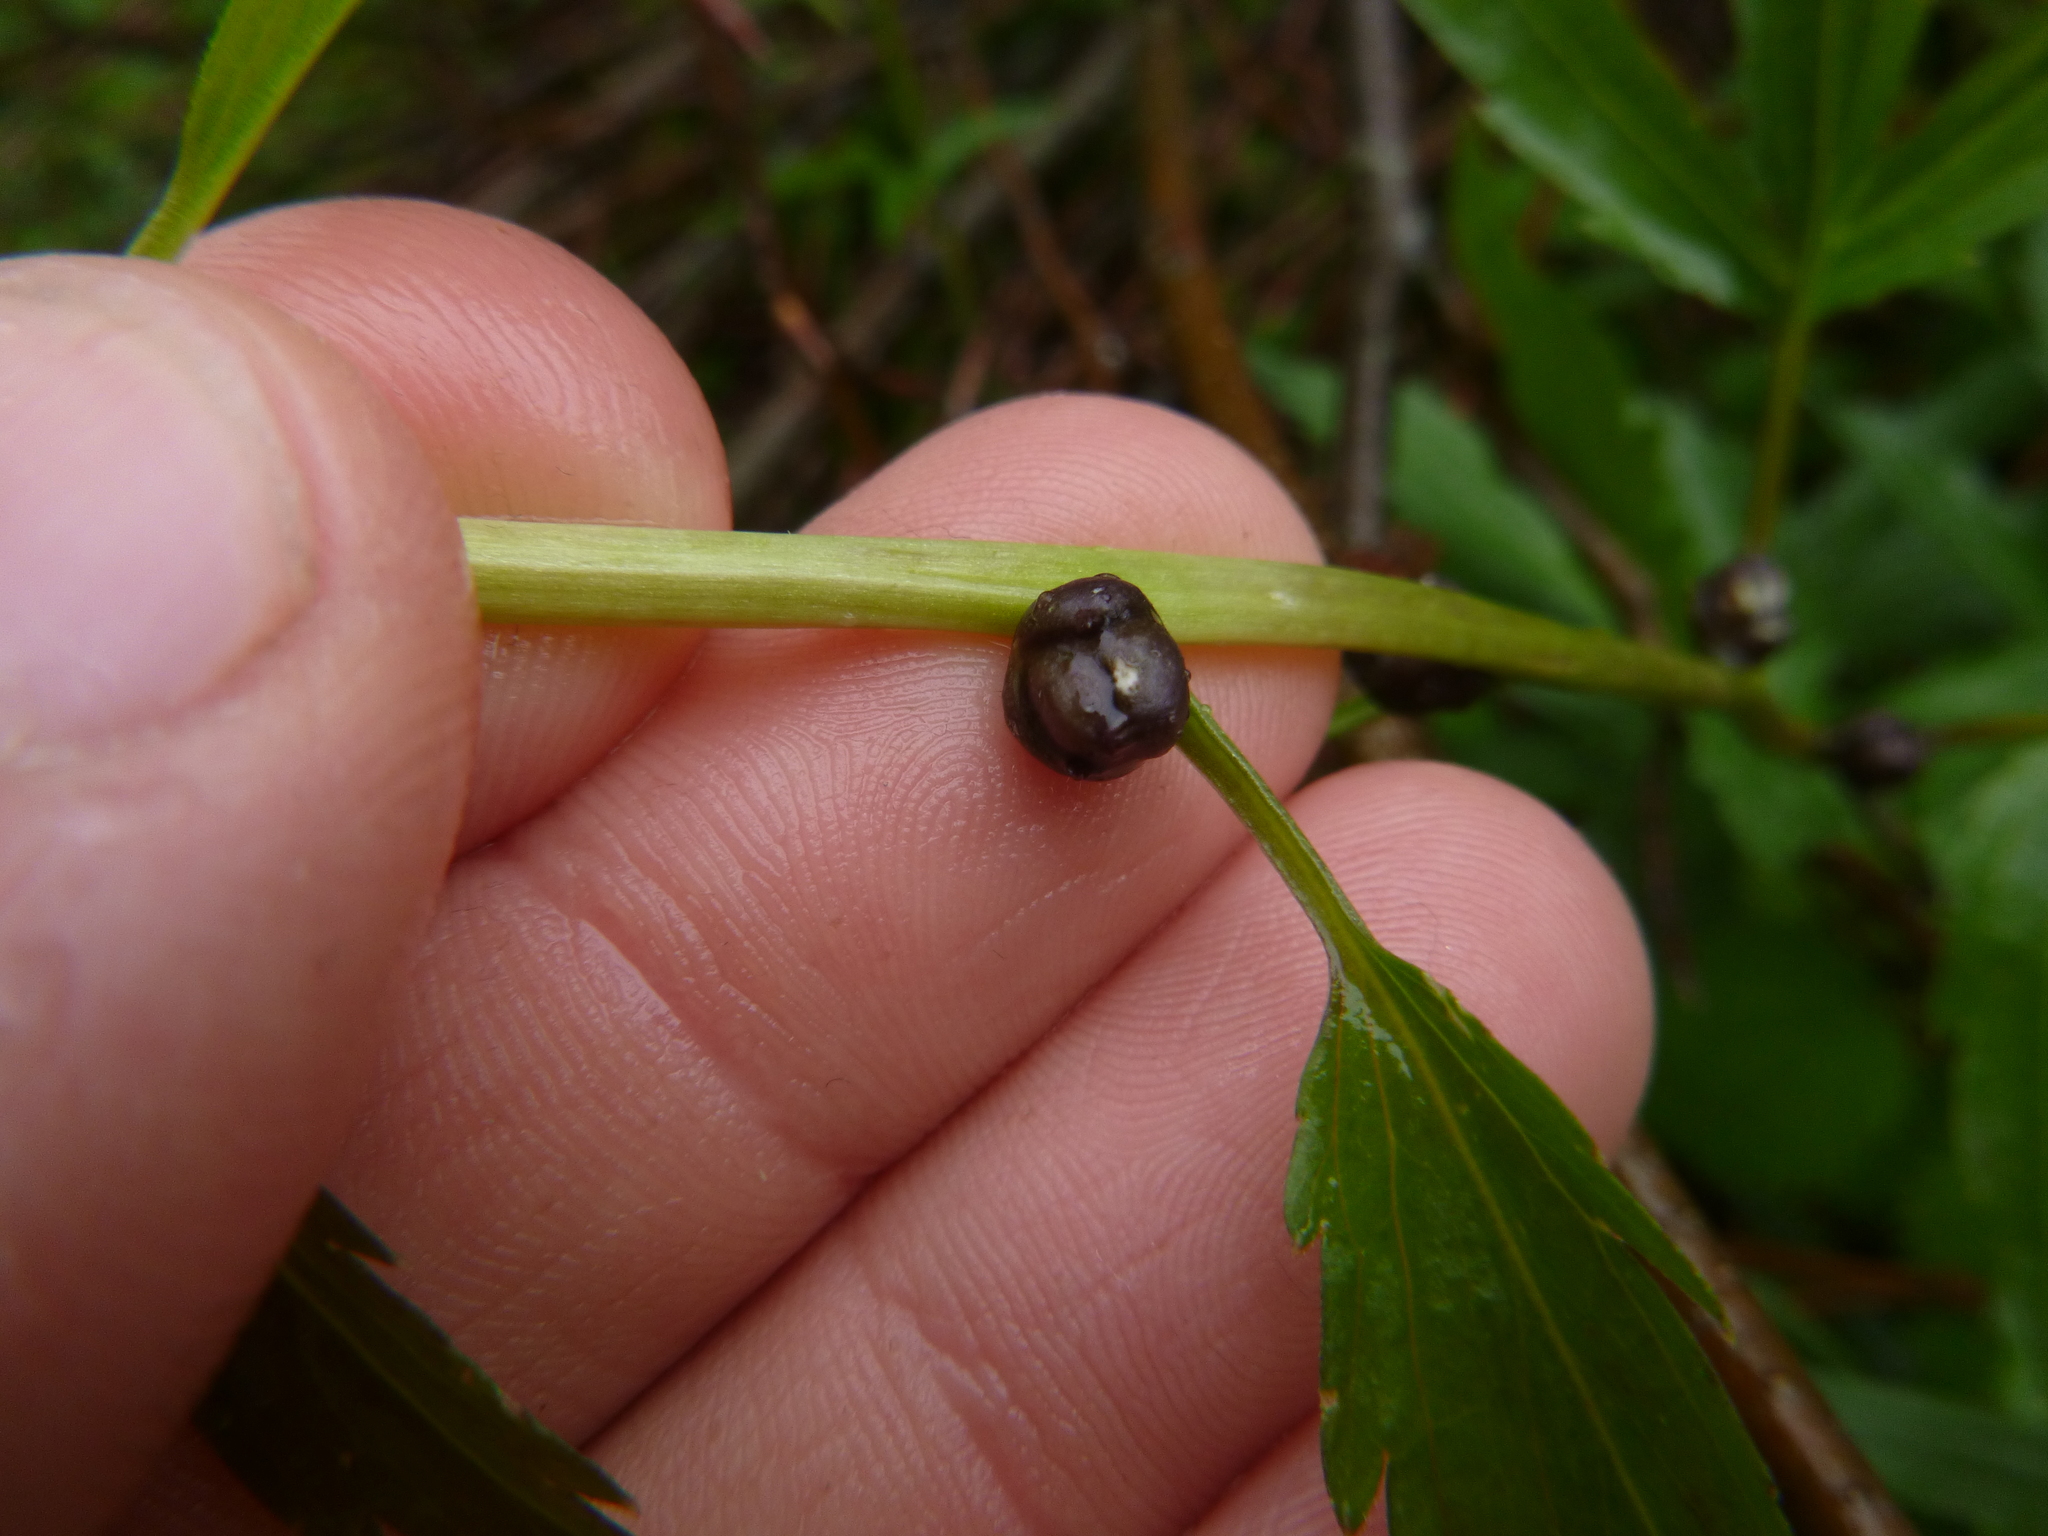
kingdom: Plantae
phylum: Tracheophyta
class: Magnoliopsida
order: Brassicales
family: Brassicaceae
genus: Cardamine
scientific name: Cardamine bulbifera
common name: Coralroot bittercress
